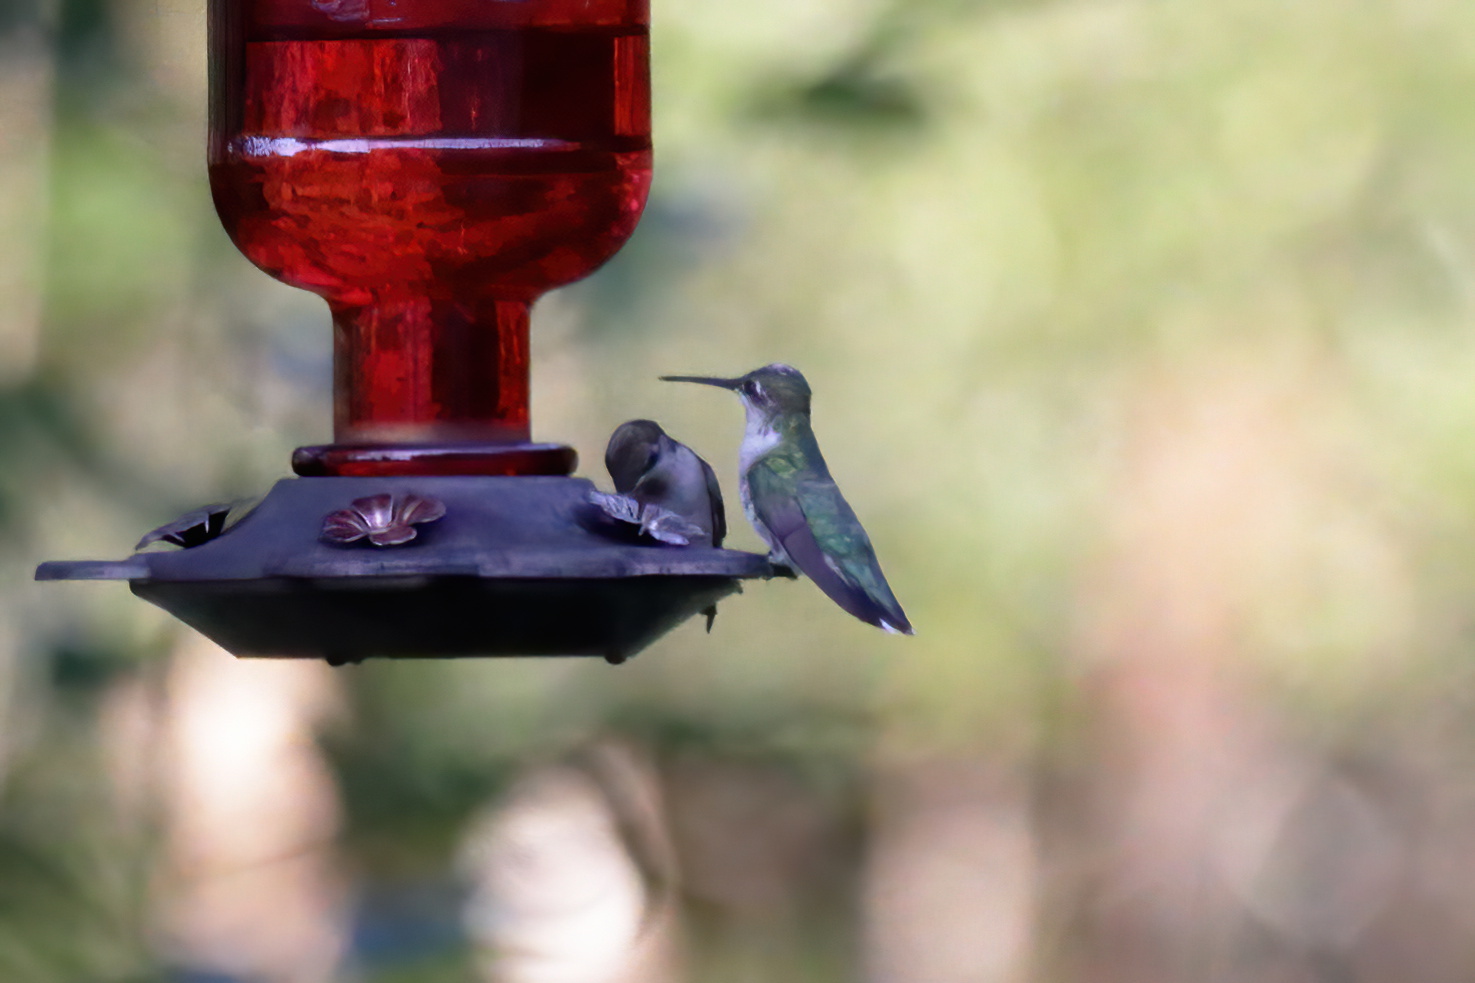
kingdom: Animalia
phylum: Chordata
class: Aves
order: Apodiformes
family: Trochilidae
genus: Archilochus
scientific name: Archilochus colubris
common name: Ruby-throated hummingbird
